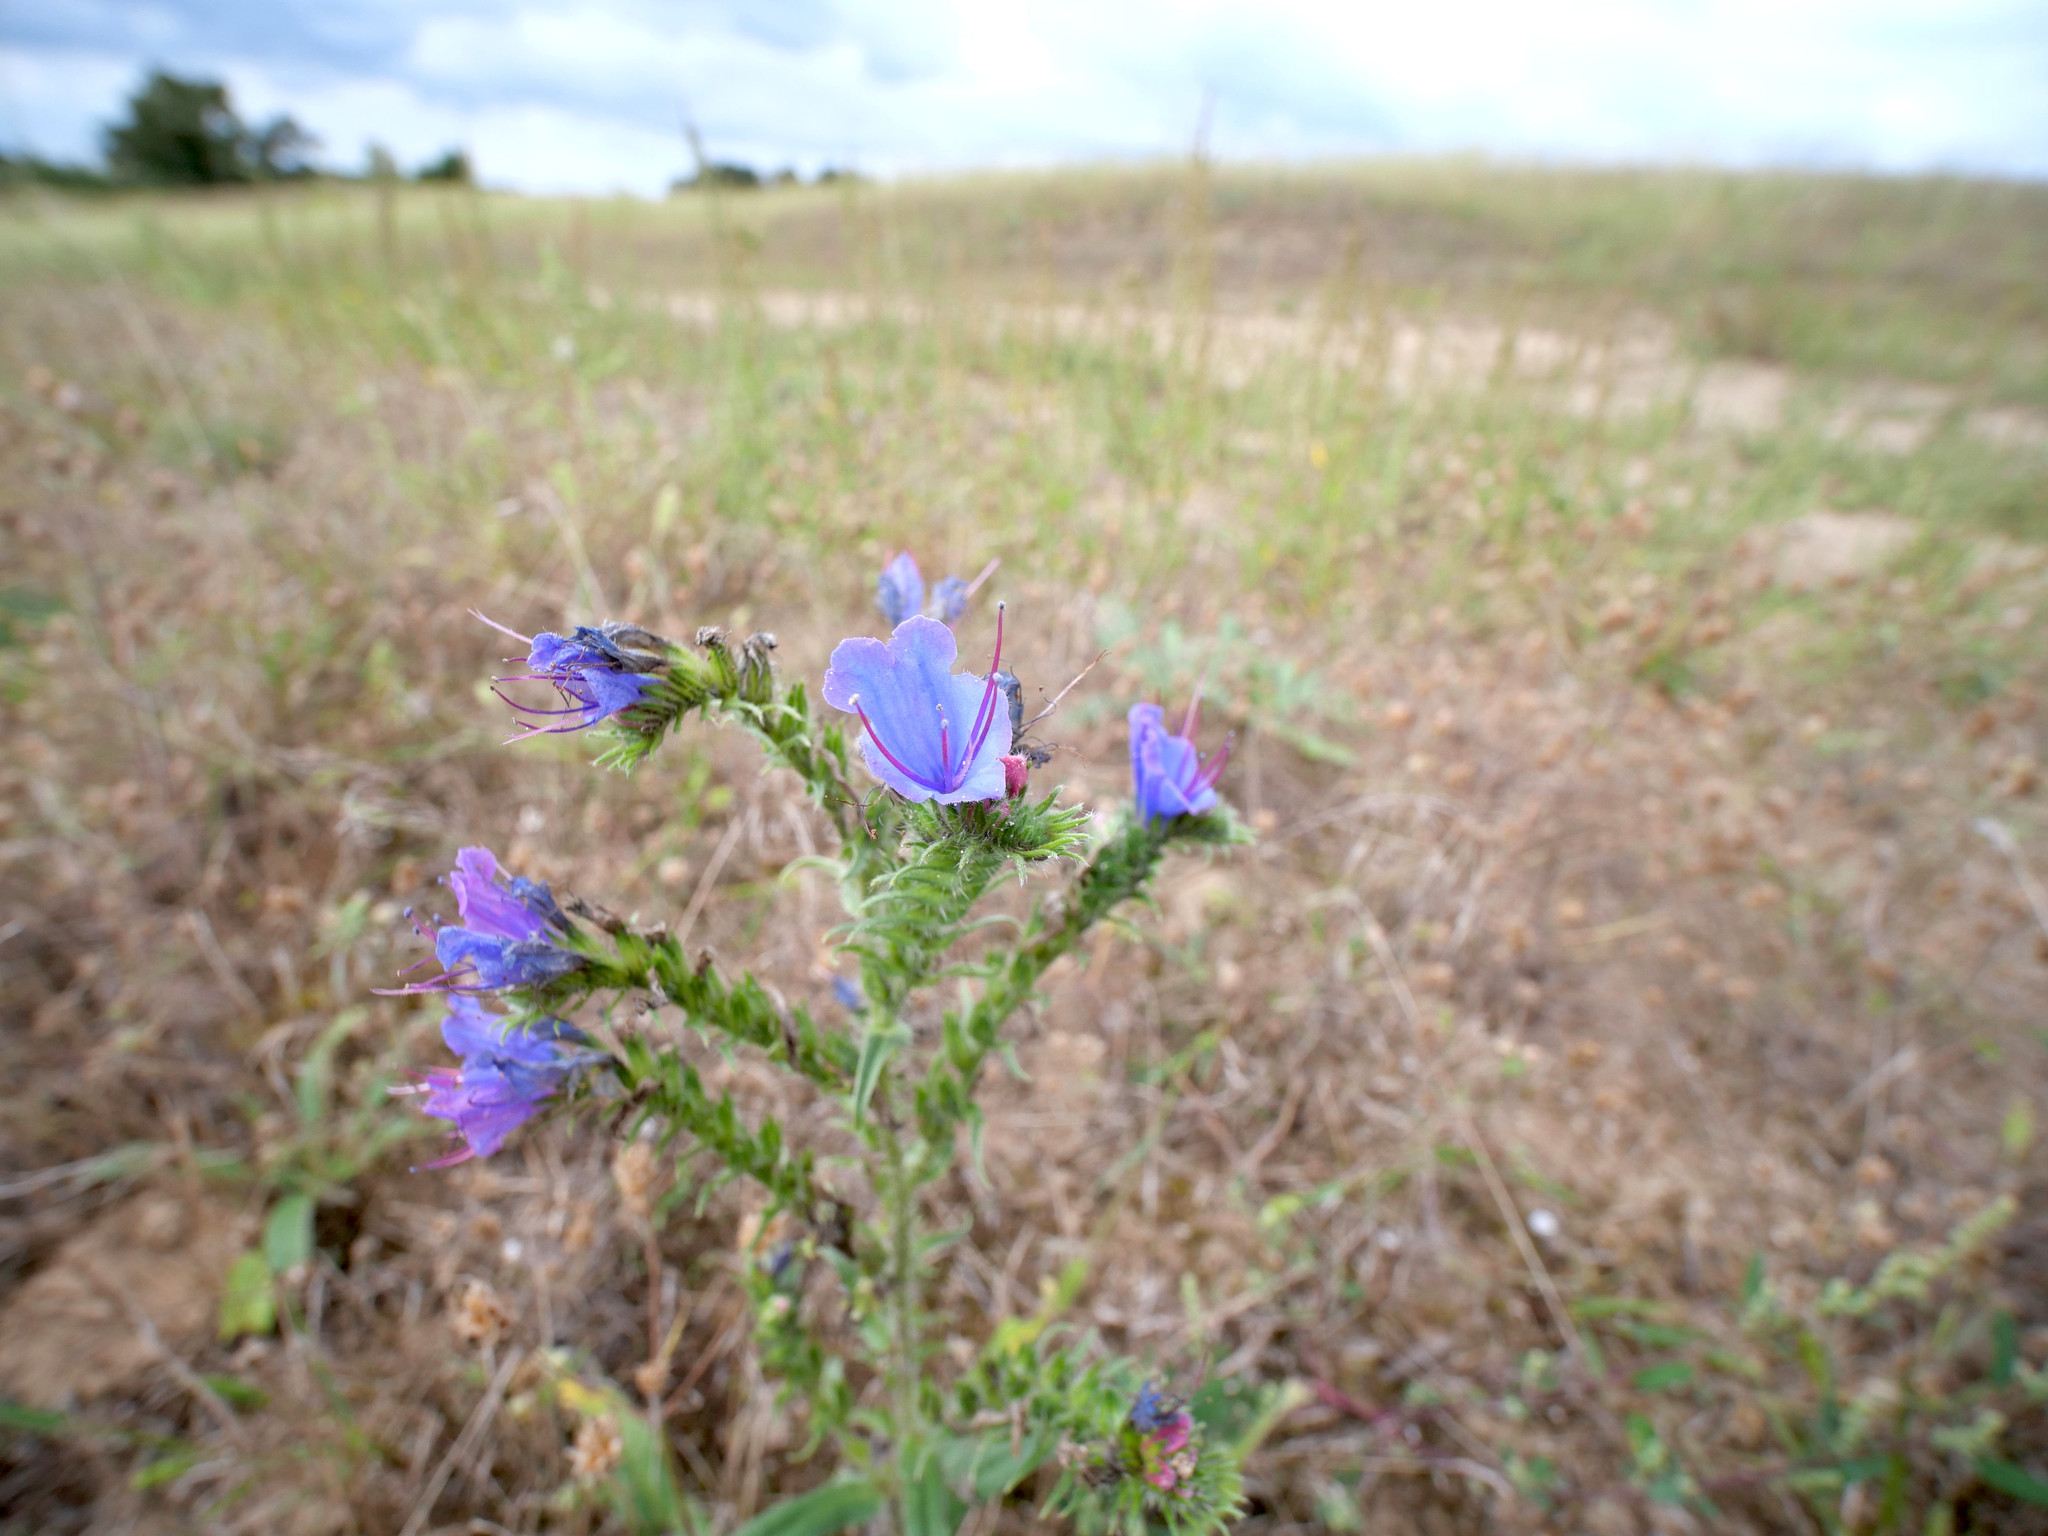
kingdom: Plantae
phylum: Tracheophyta
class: Magnoliopsida
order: Boraginales
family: Boraginaceae
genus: Echium
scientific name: Echium vulgare
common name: Common viper's bugloss
